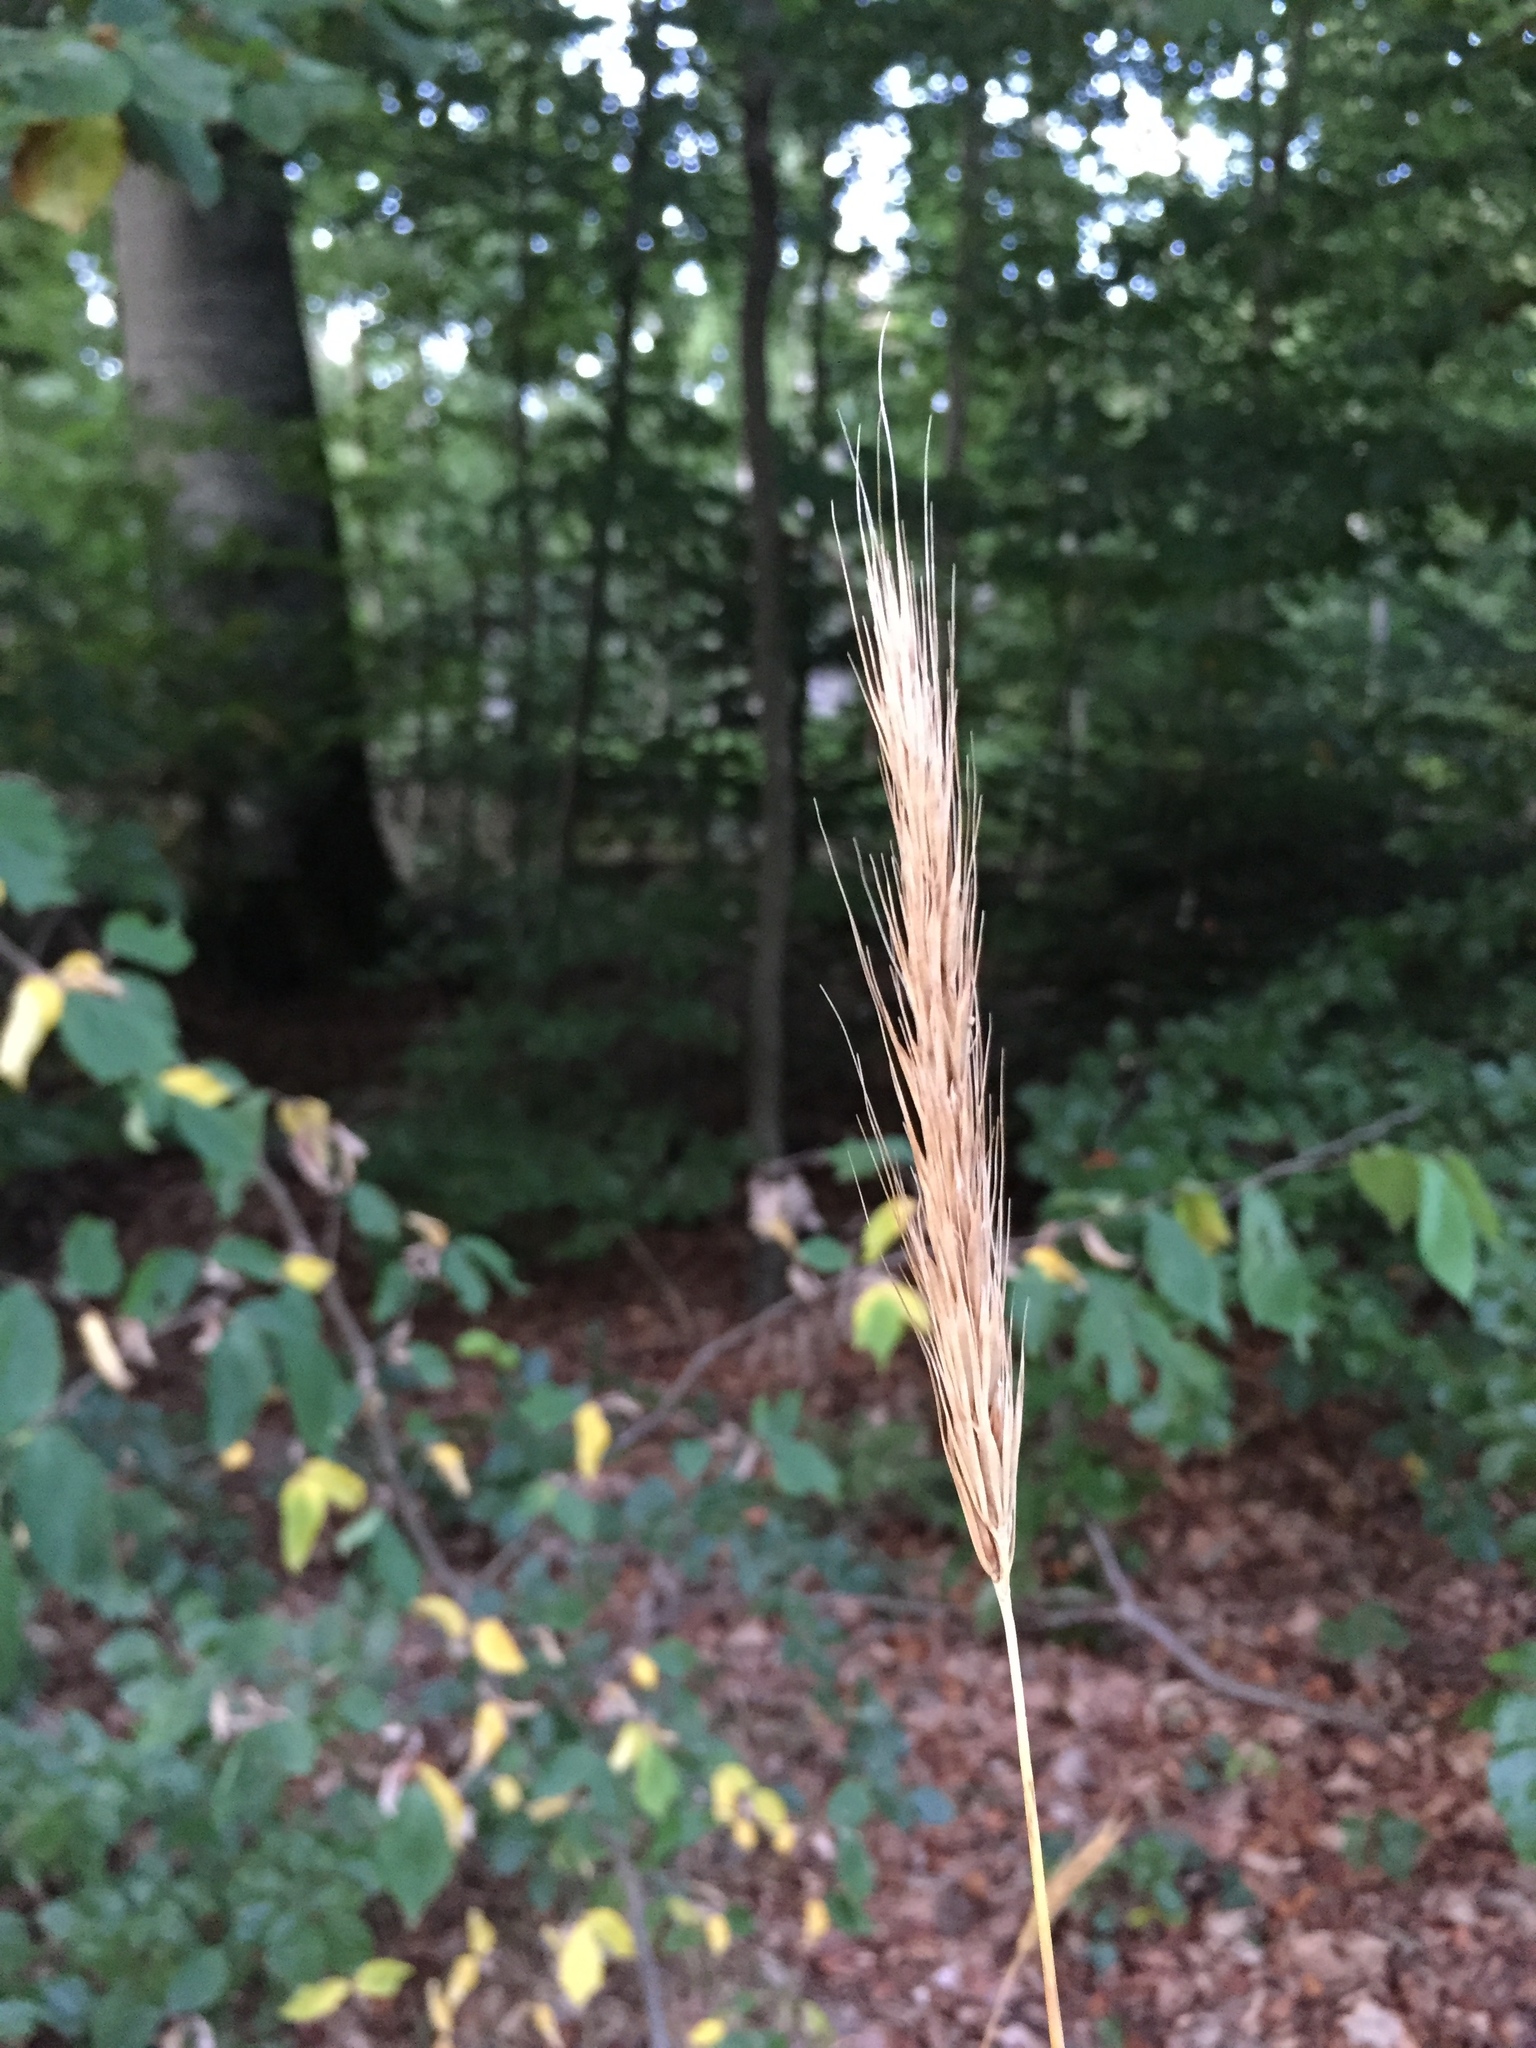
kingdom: Plantae
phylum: Tracheophyta
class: Liliopsida
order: Poales
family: Poaceae
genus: Hordelymus
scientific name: Hordelymus europaeus
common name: Wood-barley
